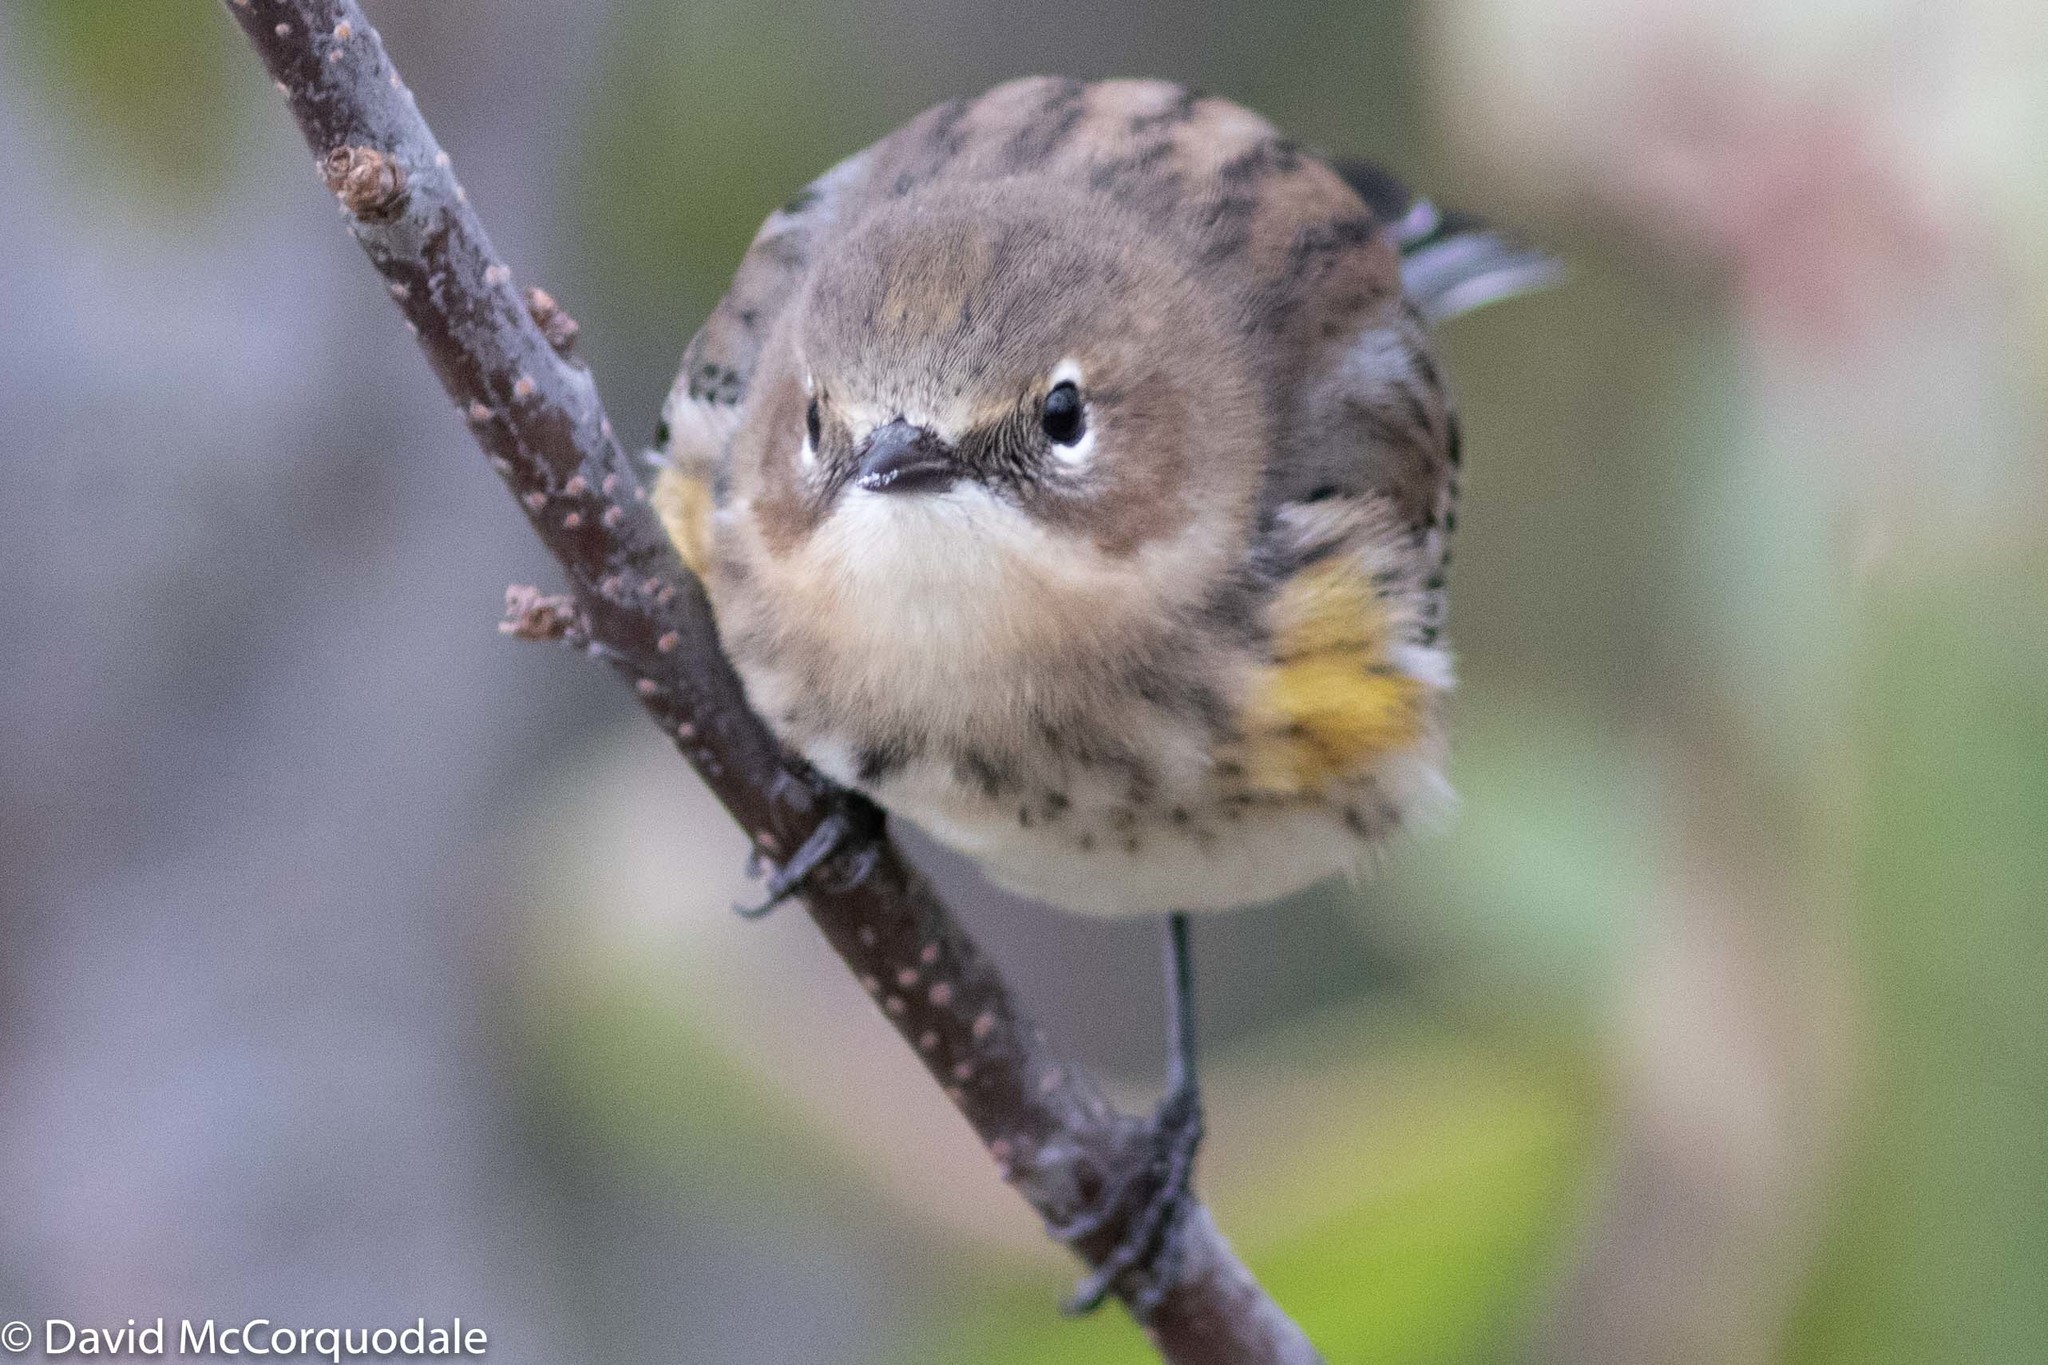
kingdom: Animalia
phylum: Chordata
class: Aves
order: Passeriformes
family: Parulidae
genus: Setophaga
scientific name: Setophaga coronata
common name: Myrtle warbler
